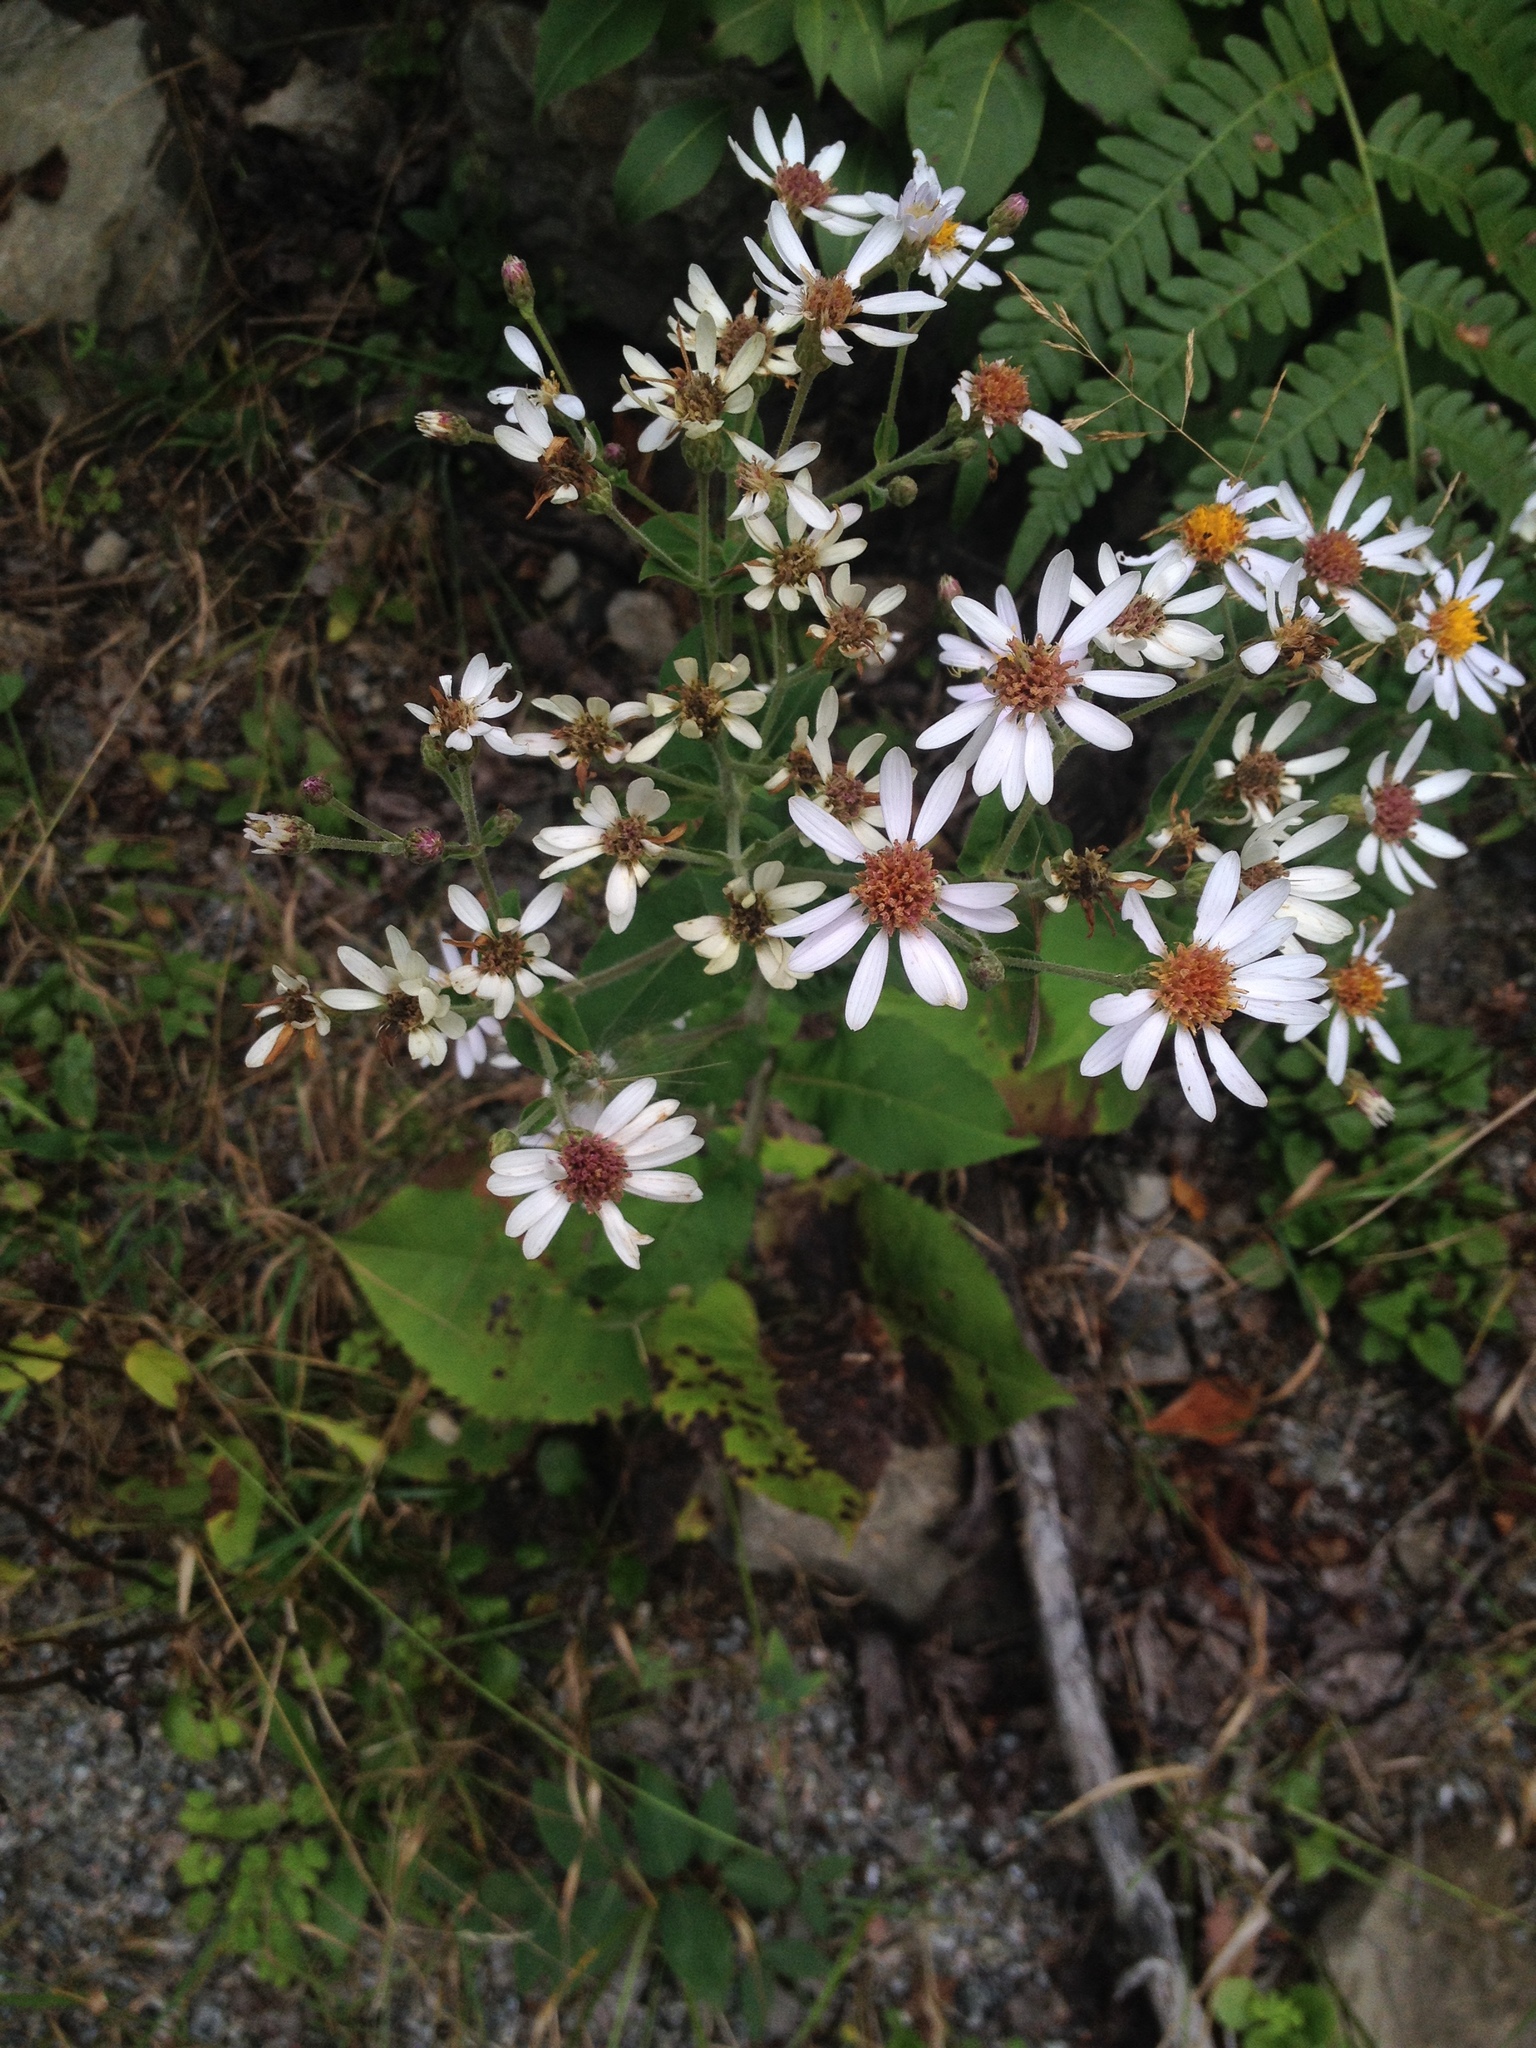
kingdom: Plantae
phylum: Tracheophyta
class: Magnoliopsida
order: Asterales
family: Asteraceae
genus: Eurybia
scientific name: Eurybia macrophylla
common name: Big-leaved aster
